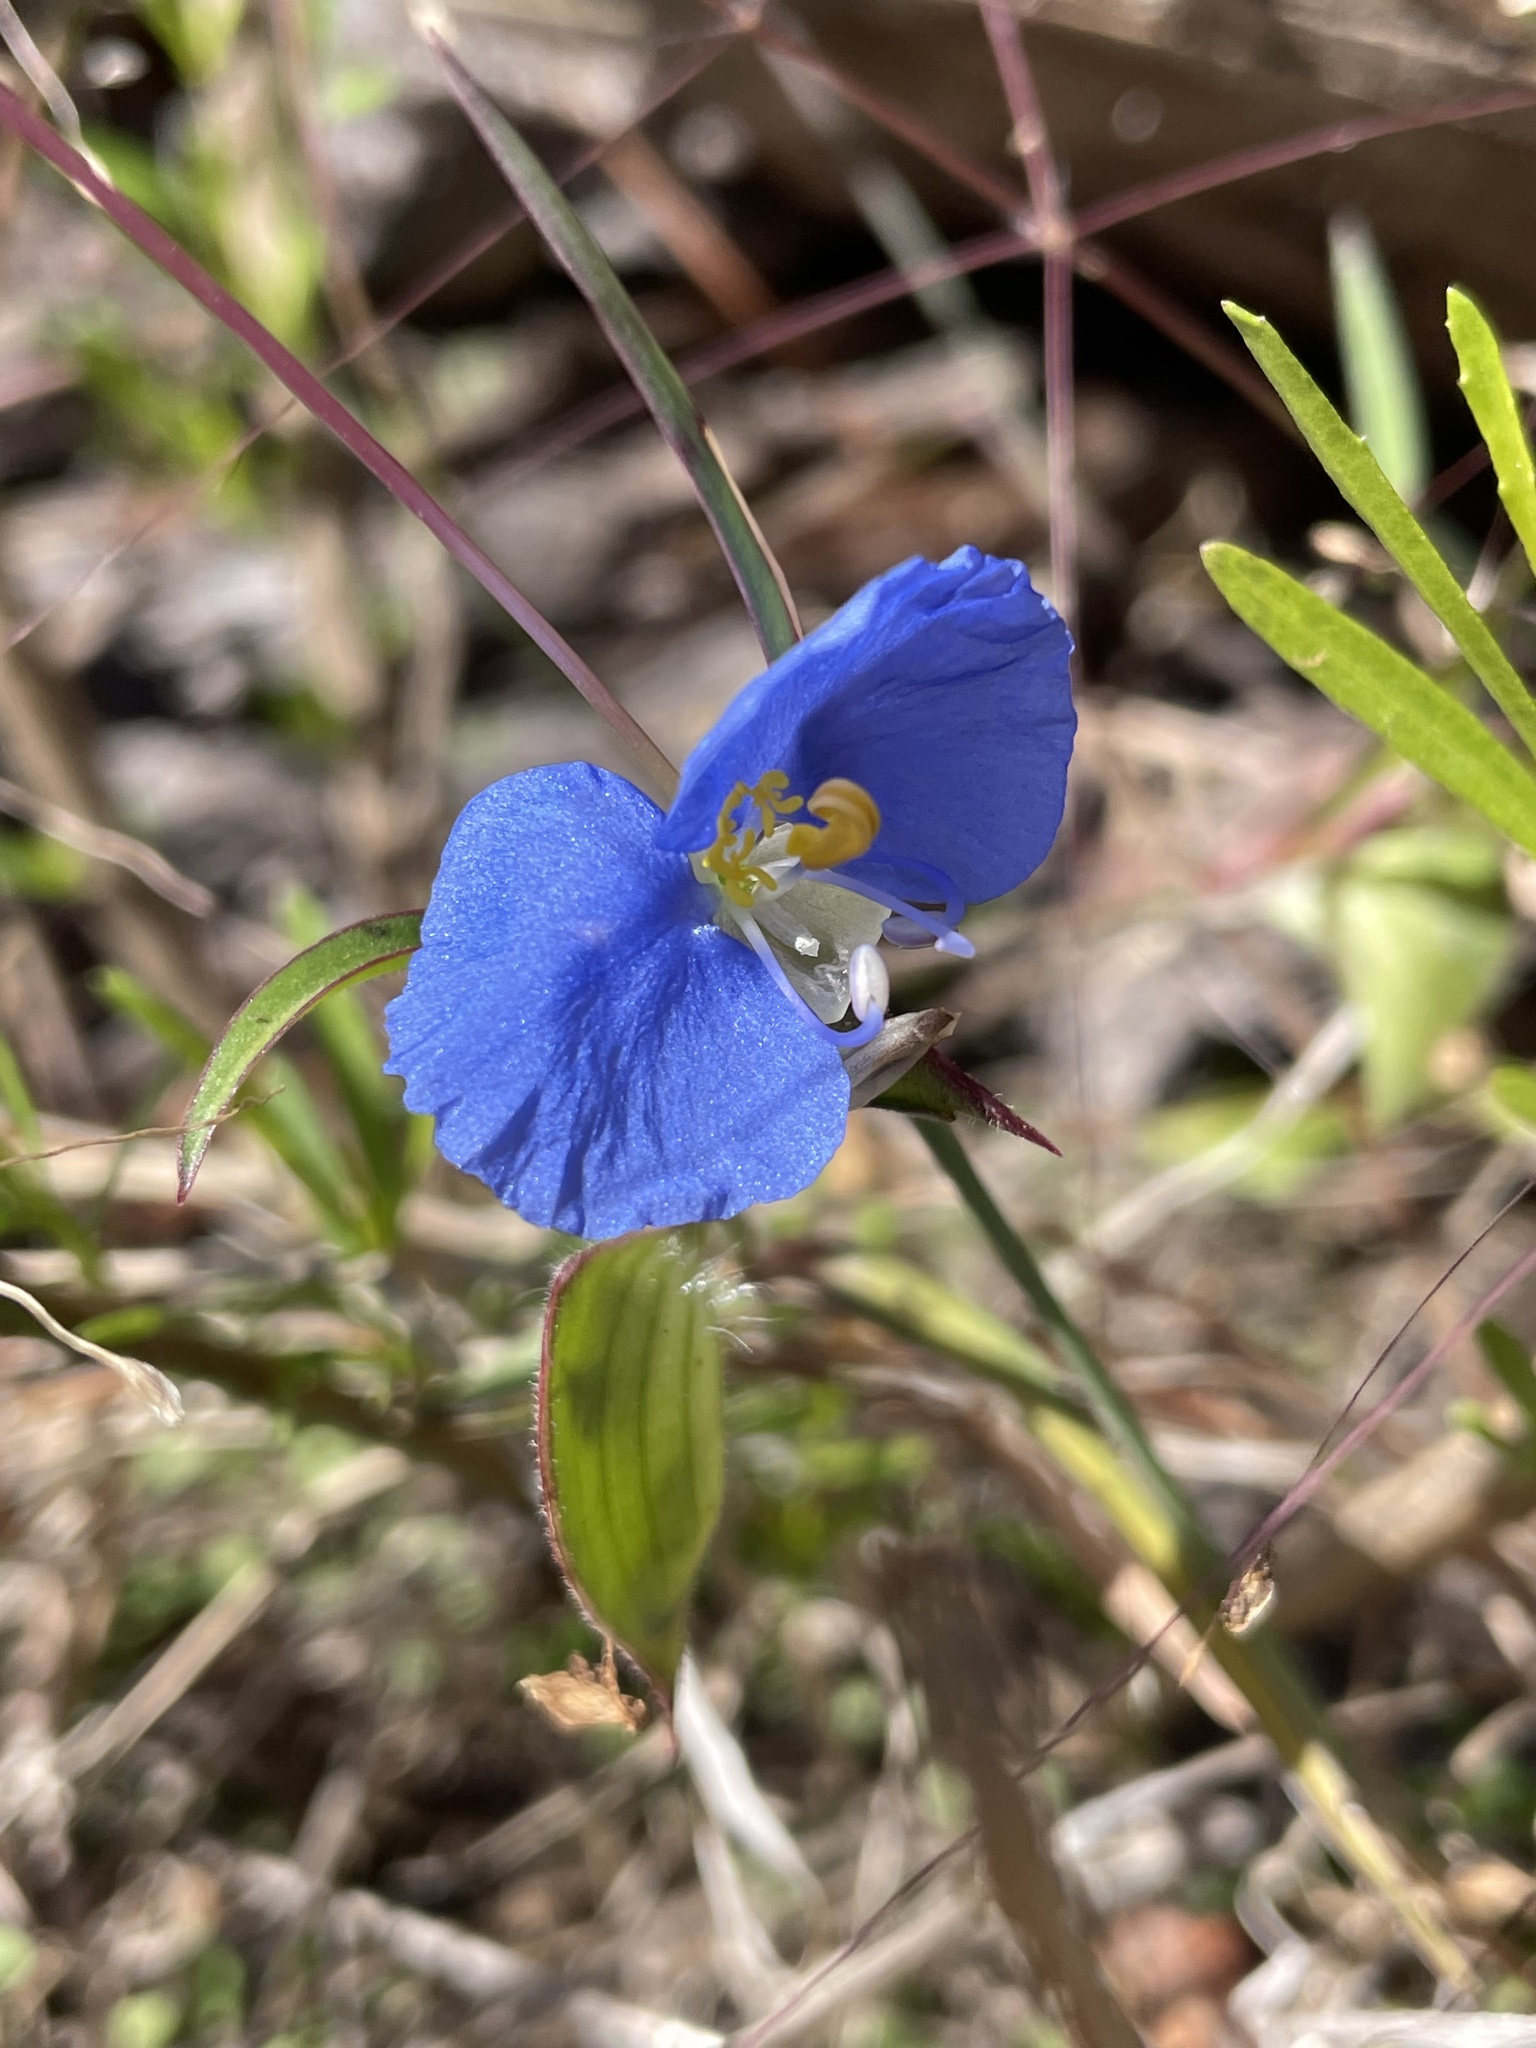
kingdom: Plantae
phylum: Tracheophyta
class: Liliopsida
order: Commelinales
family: Commelinaceae
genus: Commelina
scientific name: Commelina erecta
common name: Blousel blommetjie
